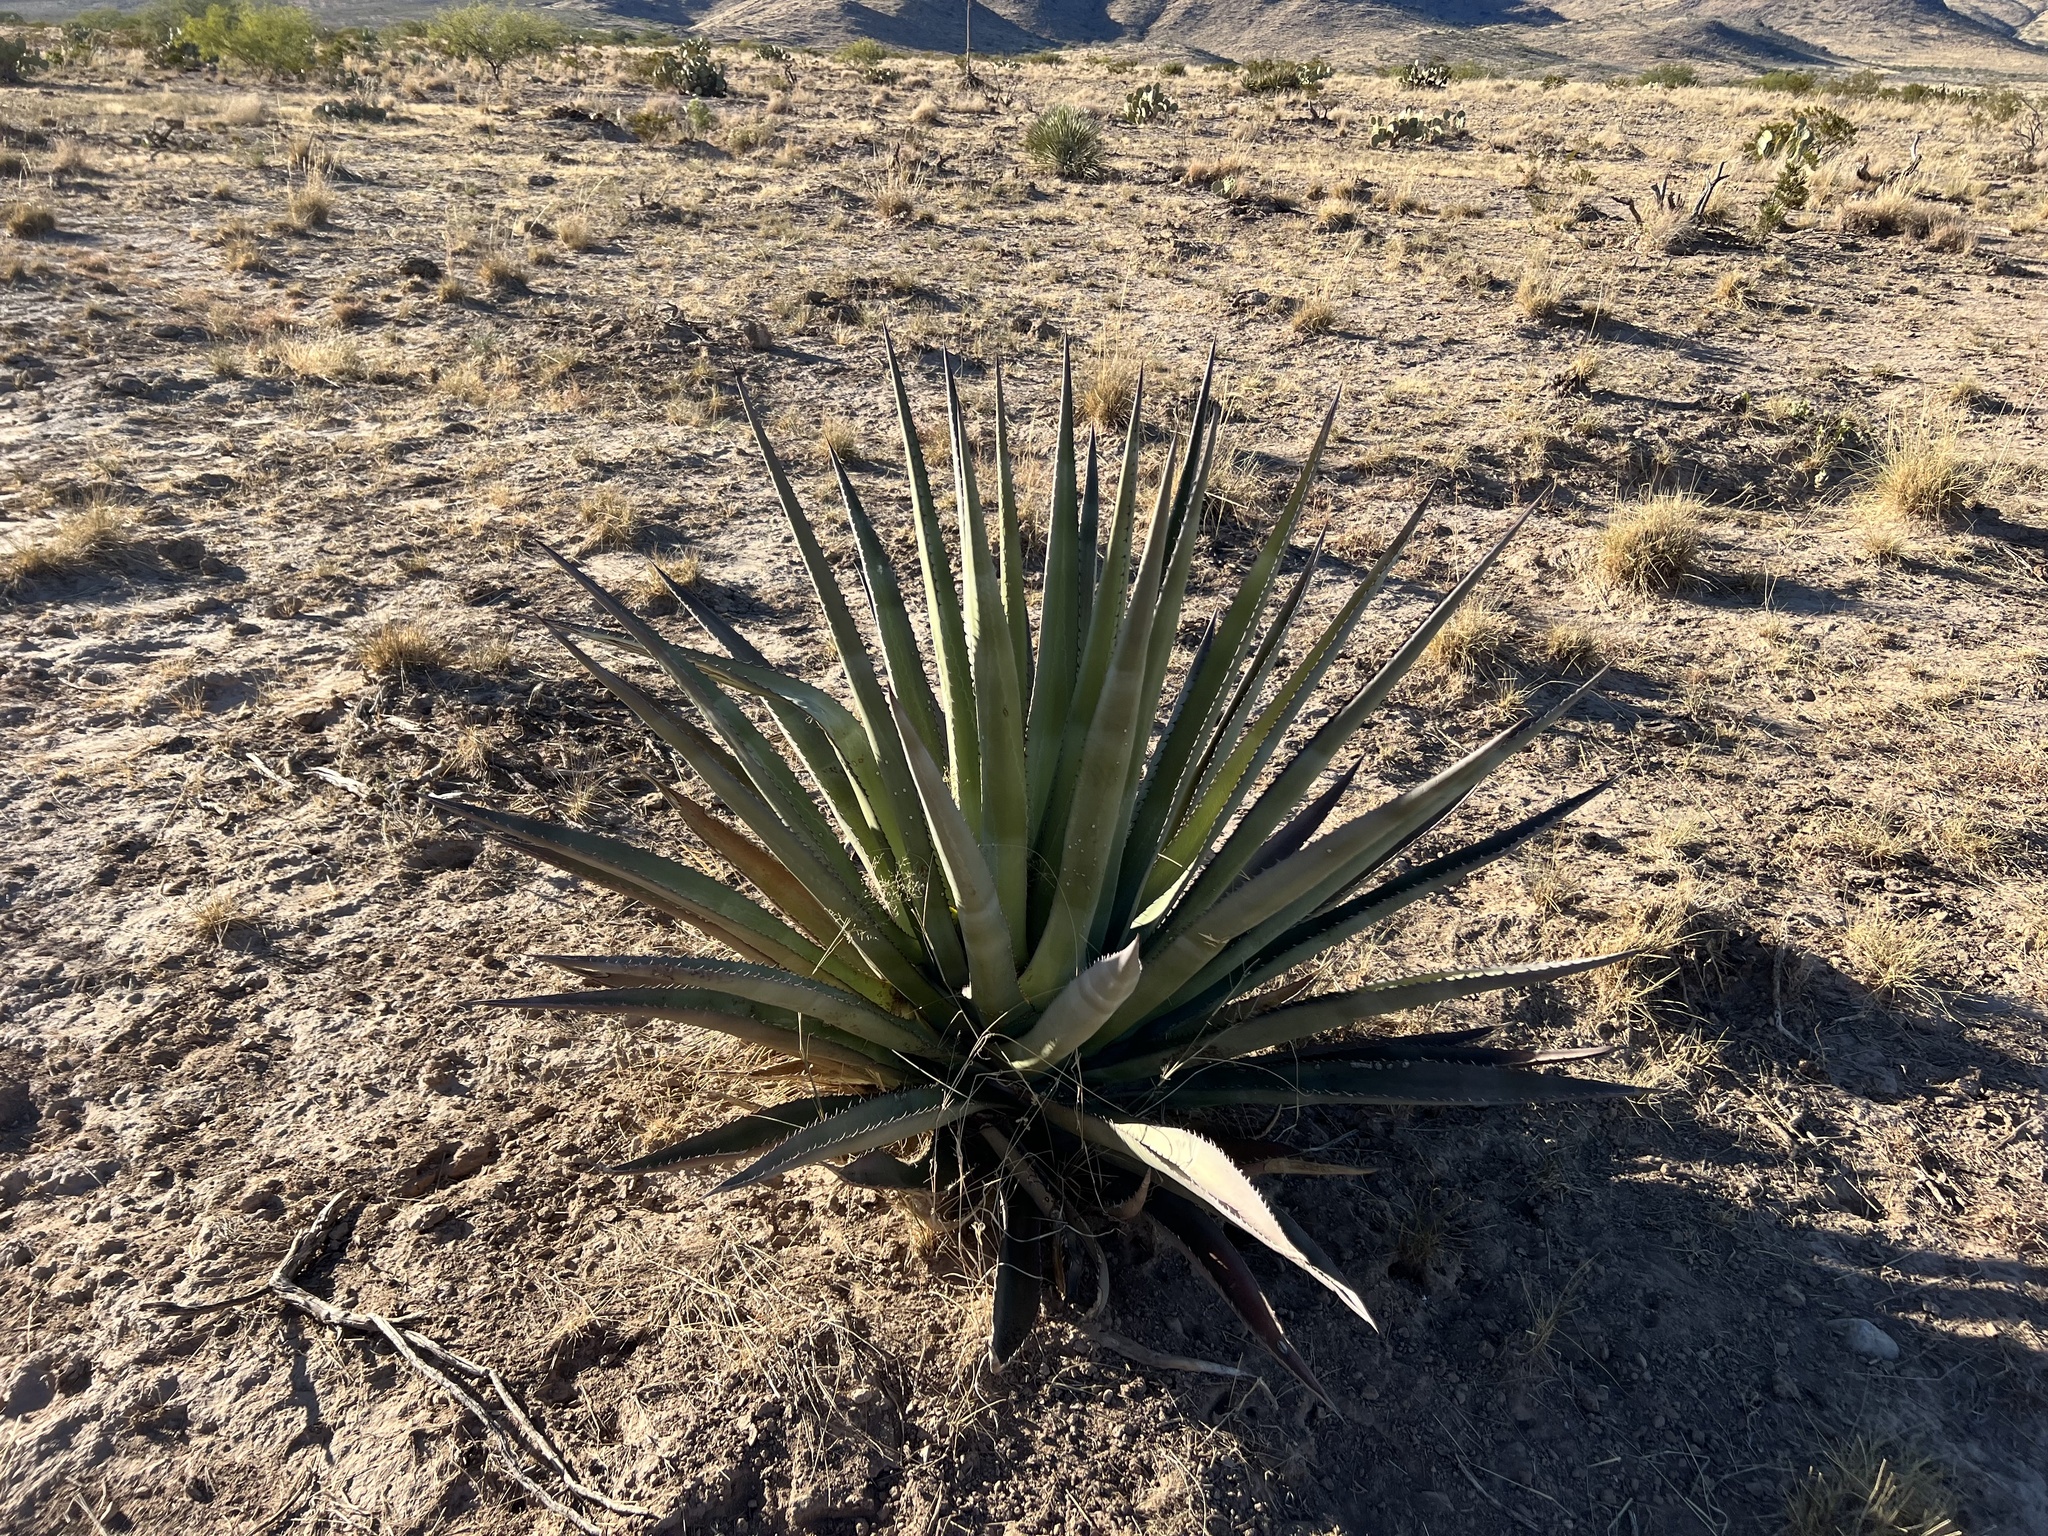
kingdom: Plantae
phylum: Tracheophyta
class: Liliopsida
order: Asparagales
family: Asparagaceae
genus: Agave
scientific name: Agave palmeri
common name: Palmer agave
